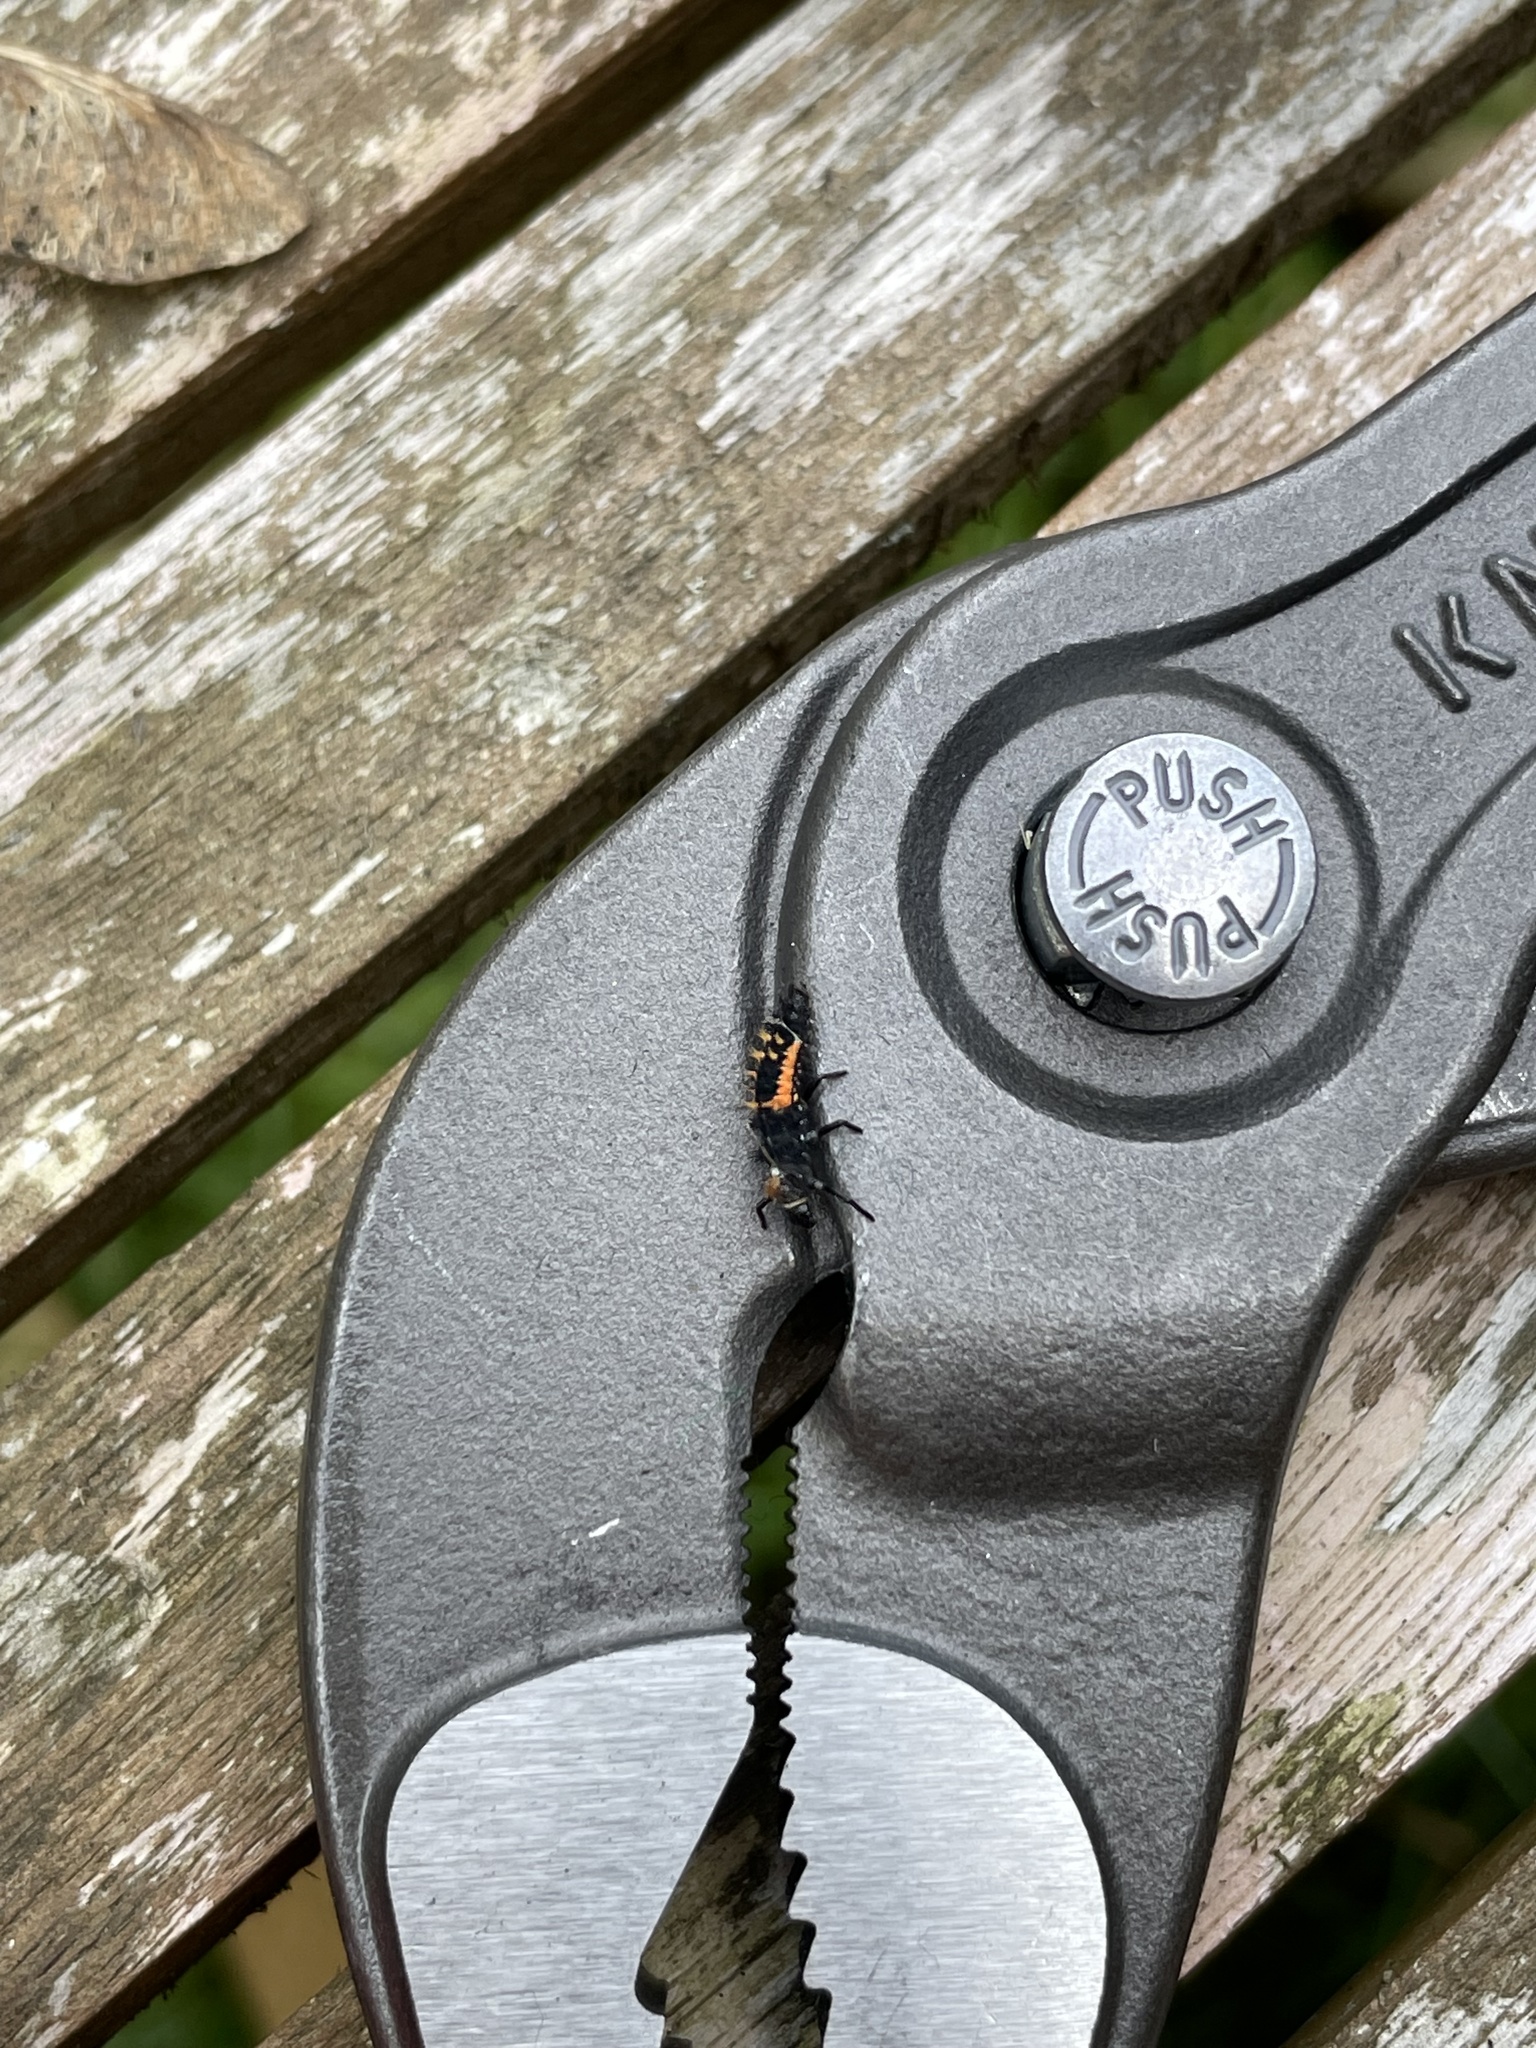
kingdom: Animalia
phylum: Arthropoda
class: Insecta
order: Coleoptera
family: Coccinellidae
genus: Harmonia
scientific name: Harmonia axyridis
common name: Harlequin ladybird
